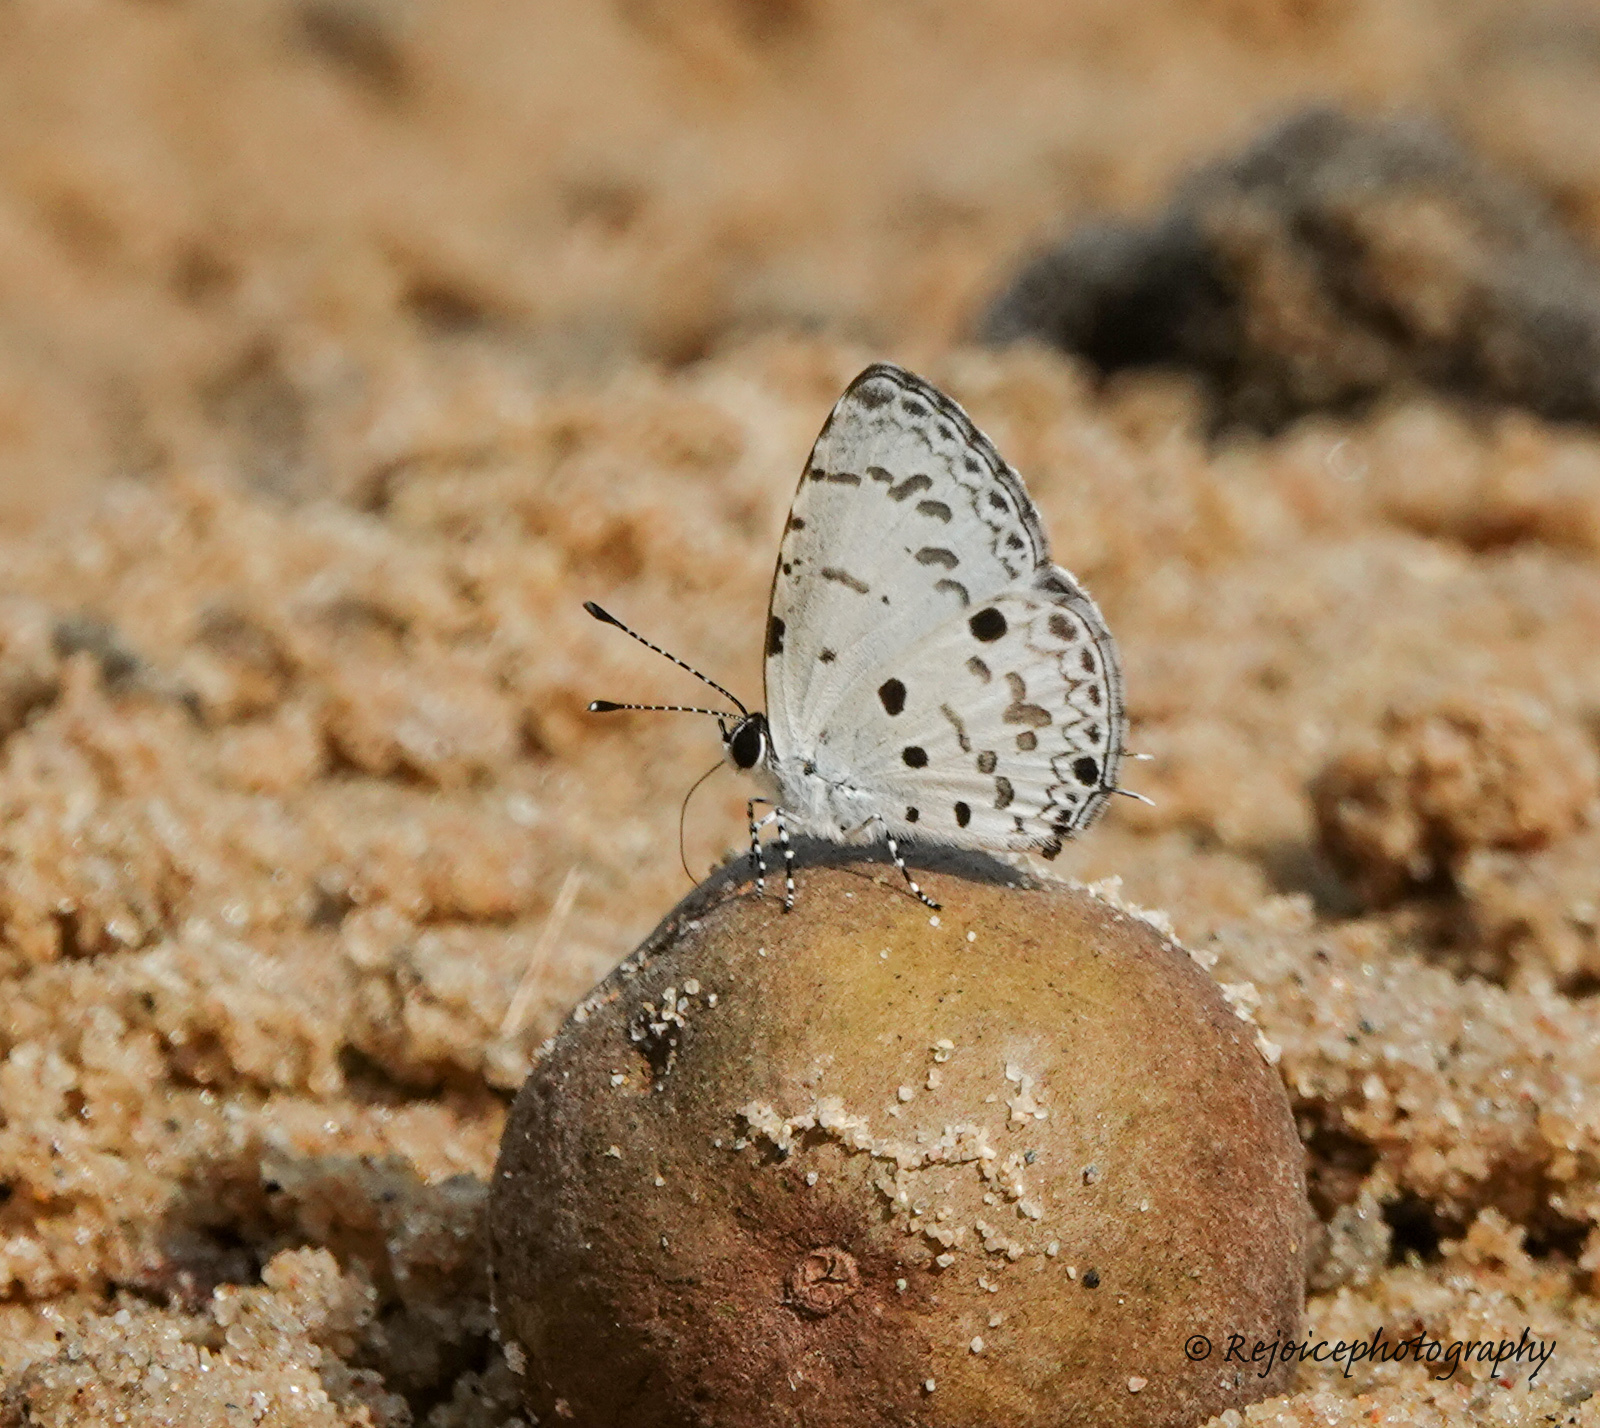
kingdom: Animalia
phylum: Arthropoda
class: Insecta
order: Lepidoptera
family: Lycaenidae
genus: Megisba
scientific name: Megisba malaya
